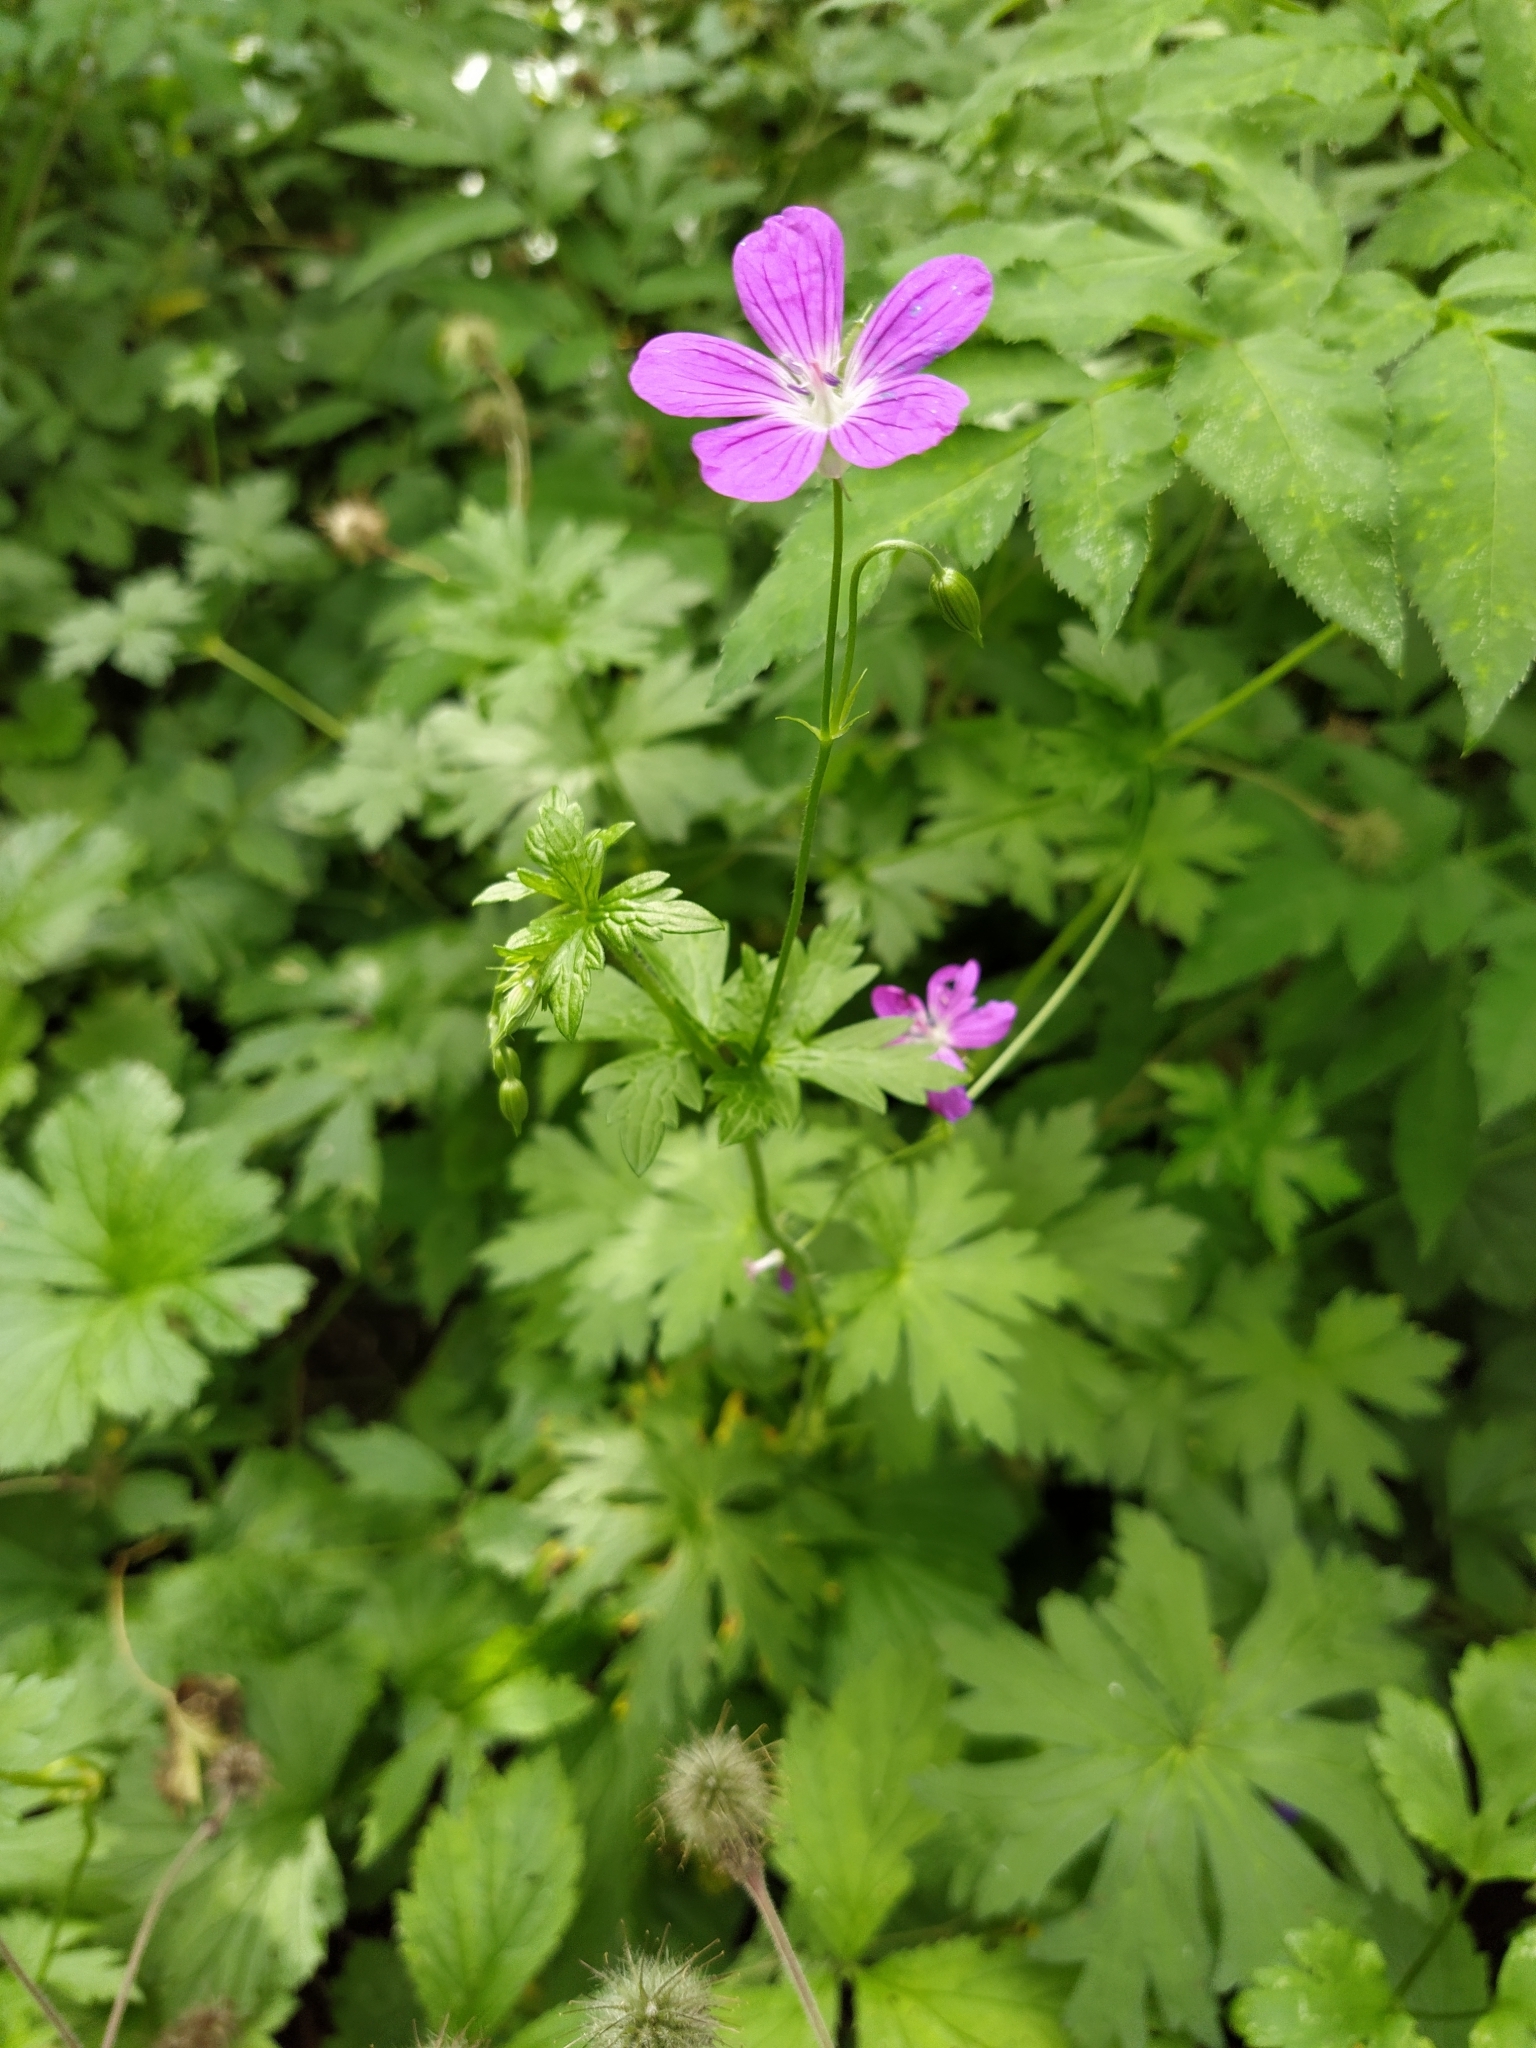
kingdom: Plantae
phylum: Tracheophyta
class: Magnoliopsida
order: Geraniales
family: Geraniaceae
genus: Geranium
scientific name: Geranium palustre
